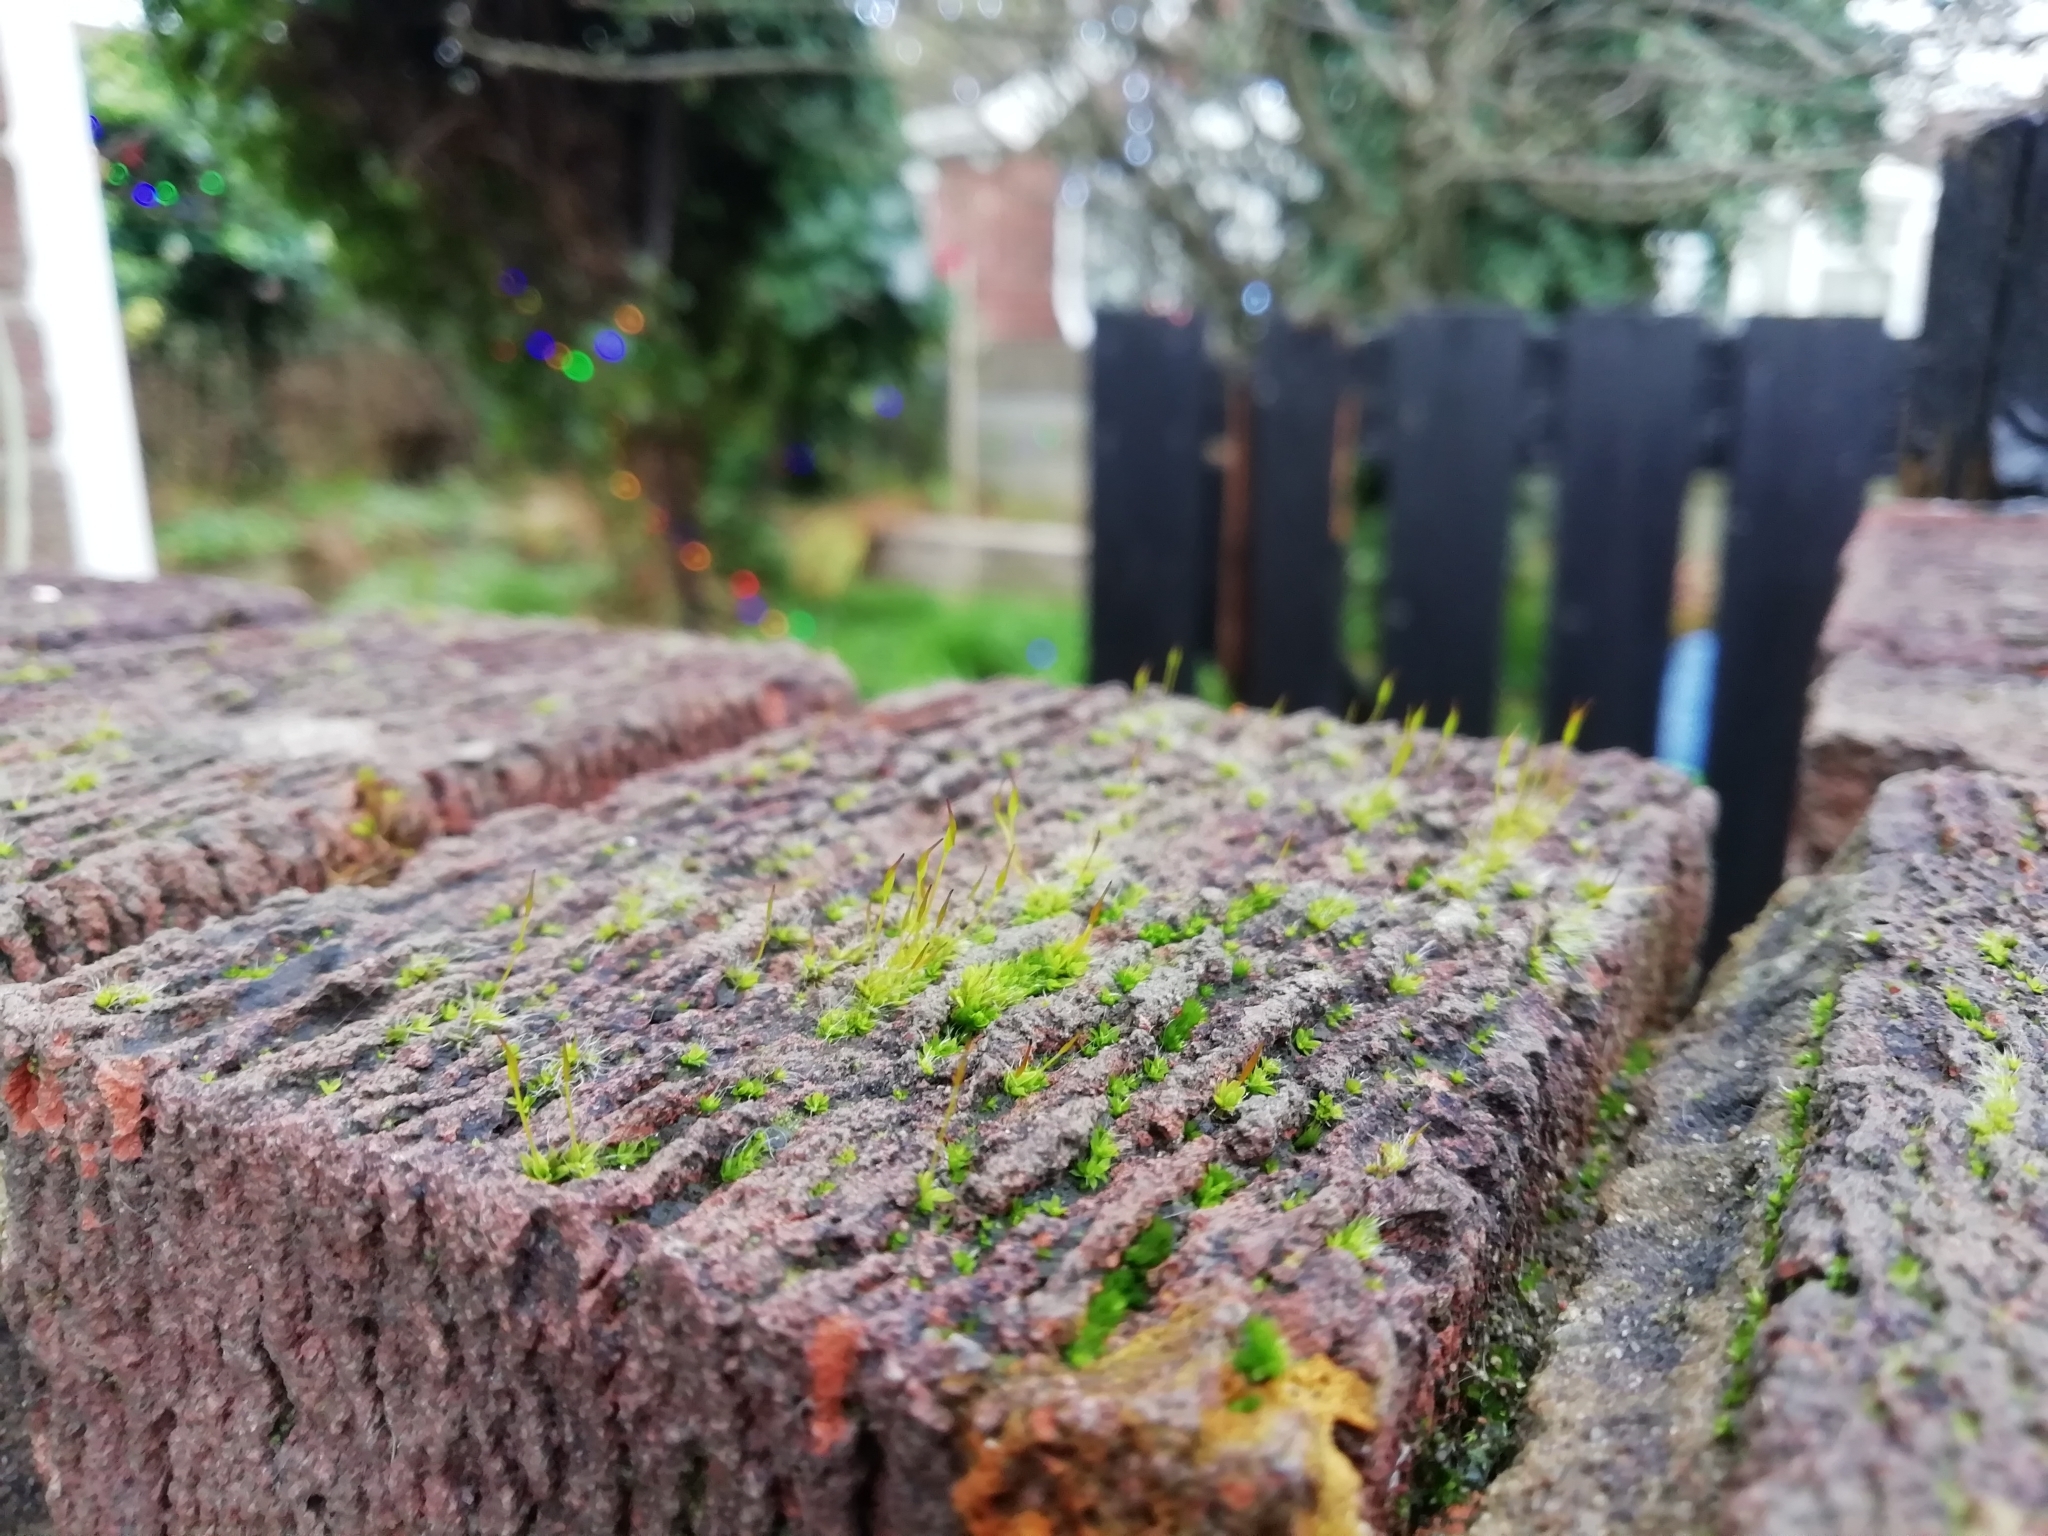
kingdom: Plantae
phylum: Bryophyta
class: Bryopsida
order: Pottiales
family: Pottiaceae
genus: Tortula
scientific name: Tortula muralis
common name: Wall screw-moss
